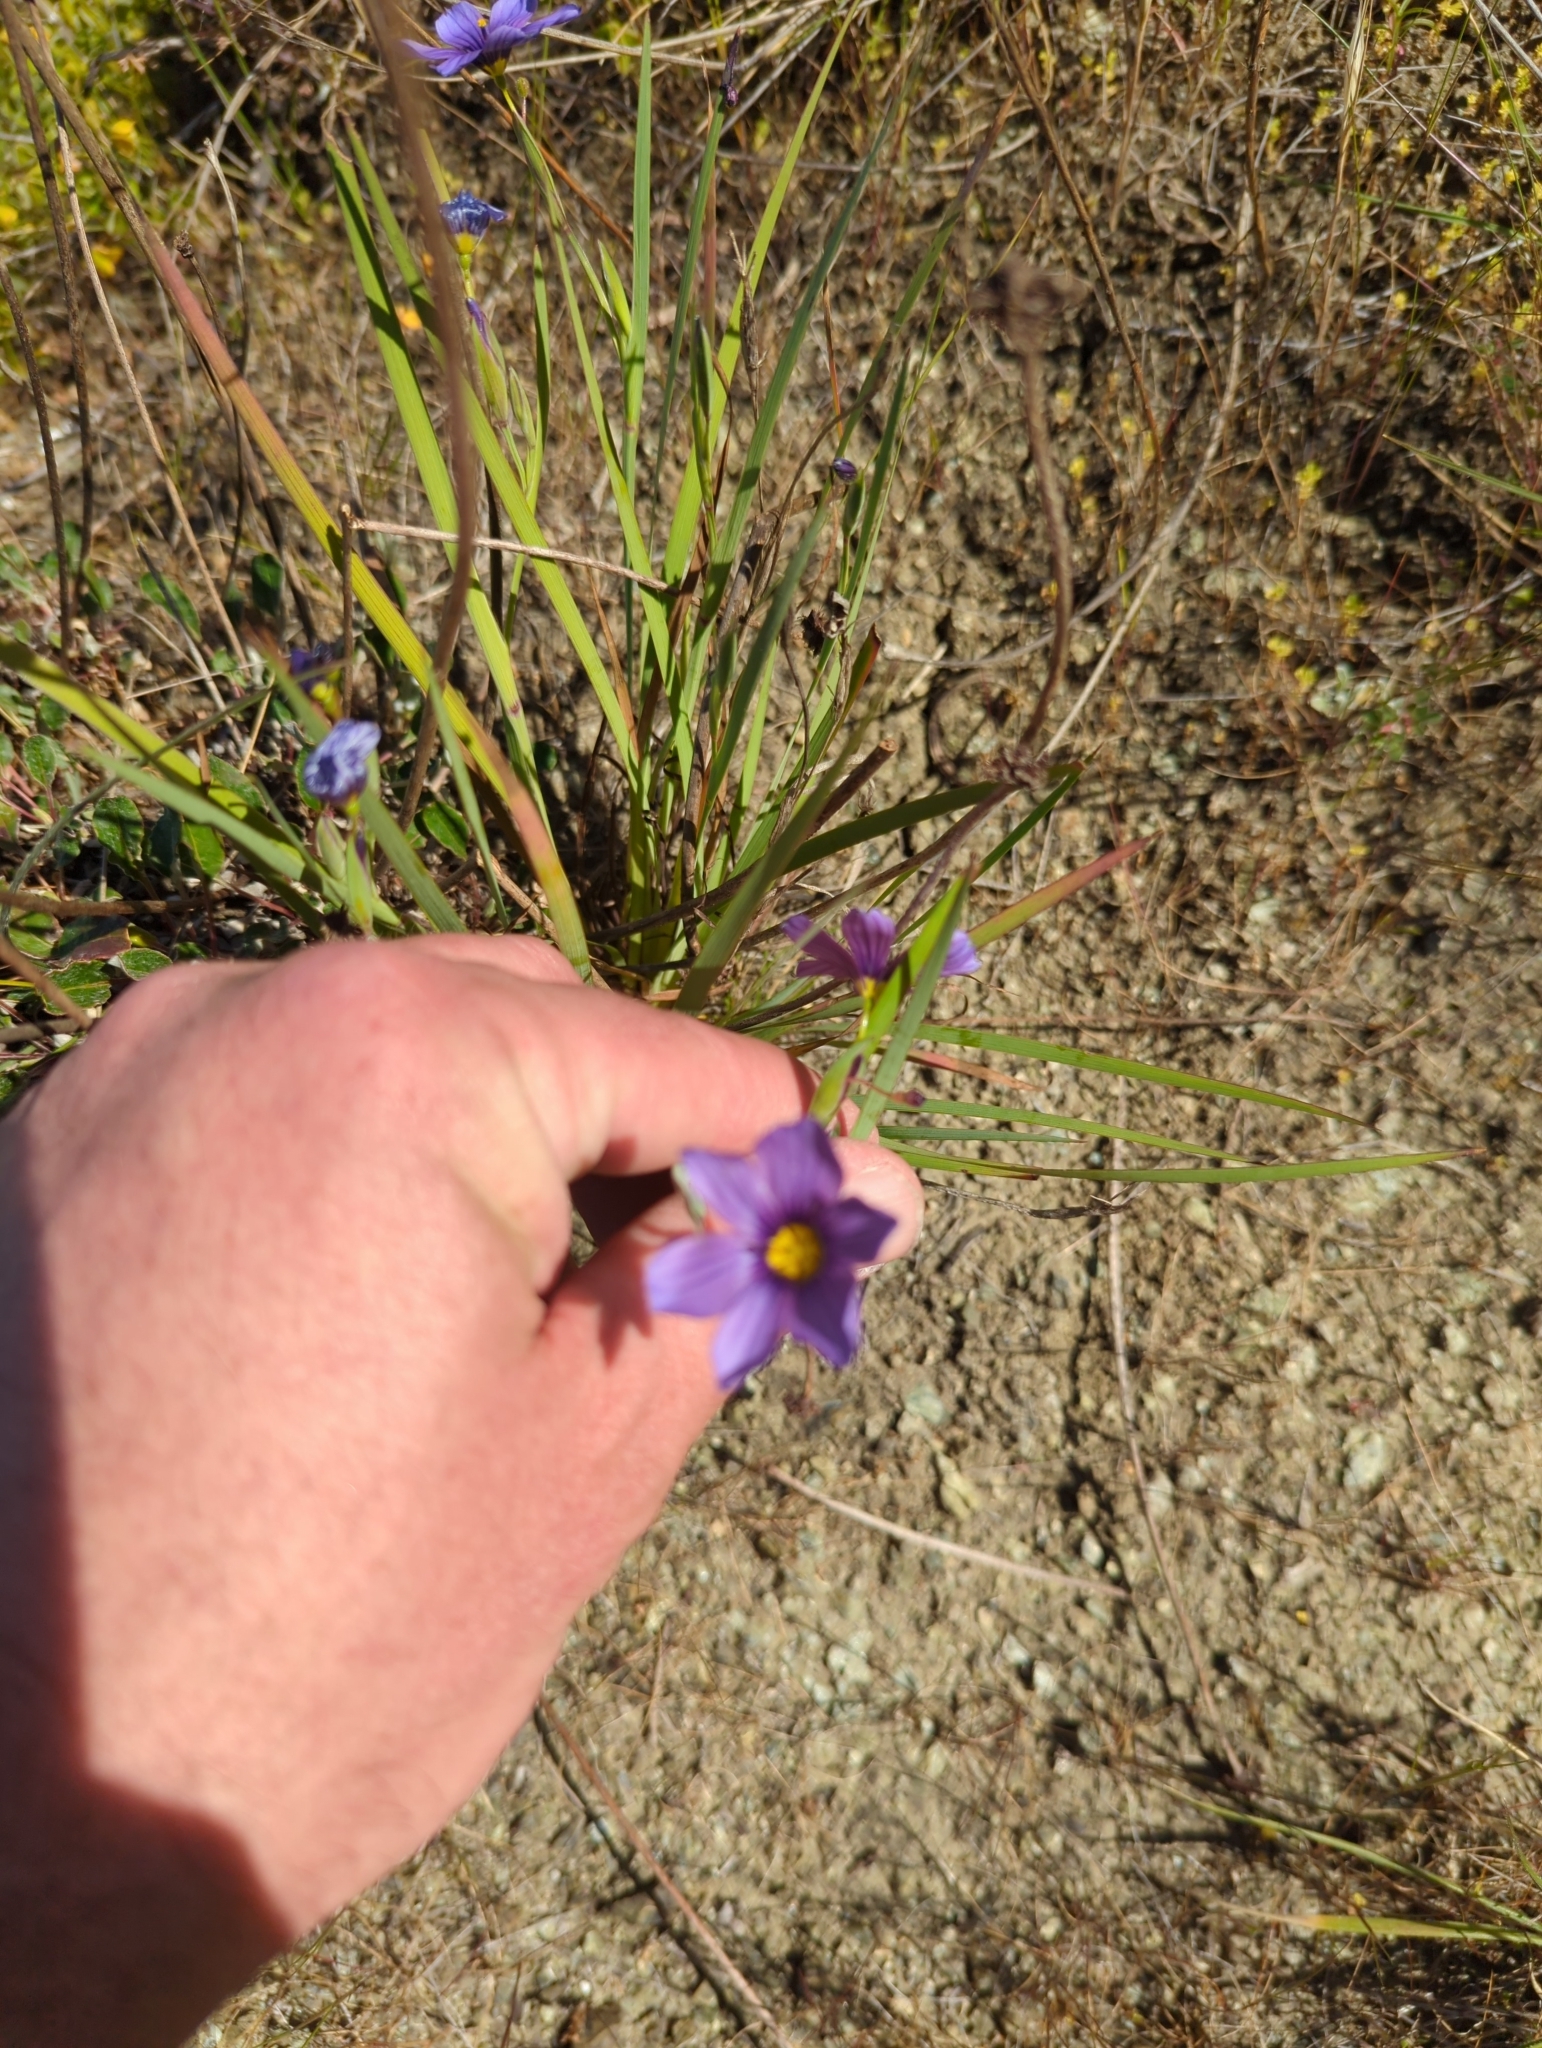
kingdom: Plantae
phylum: Tracheophyta
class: Liliopsida
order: Asparagales
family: Iridaceae
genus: Sisyrinchium
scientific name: Sisyrinchium bellum
